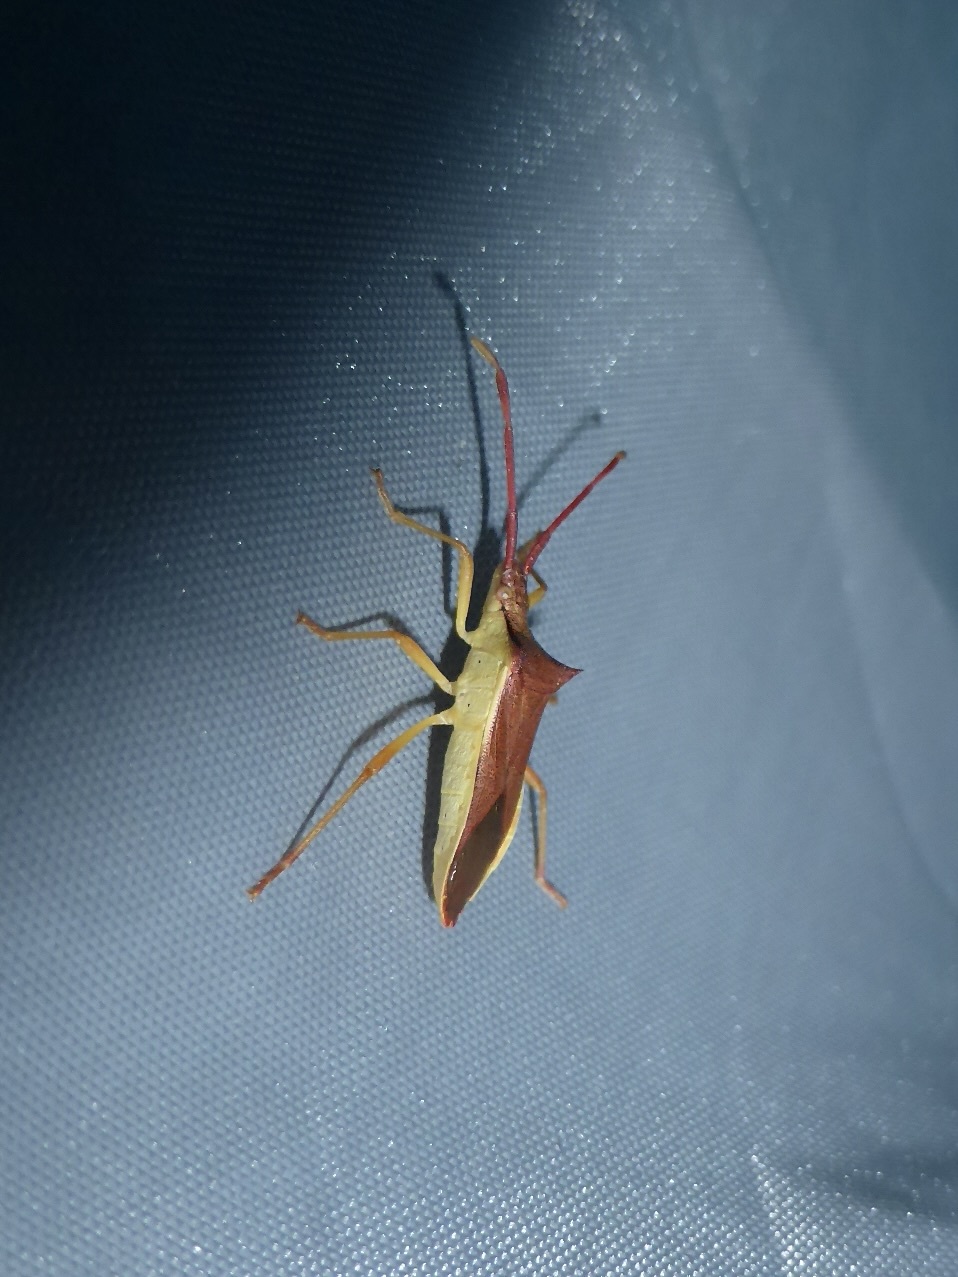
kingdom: Animalia
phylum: Arthropoda
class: Insecta
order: Hemiptera
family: Coreidae
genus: Gonocerus
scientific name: Gonocerus insidiator
